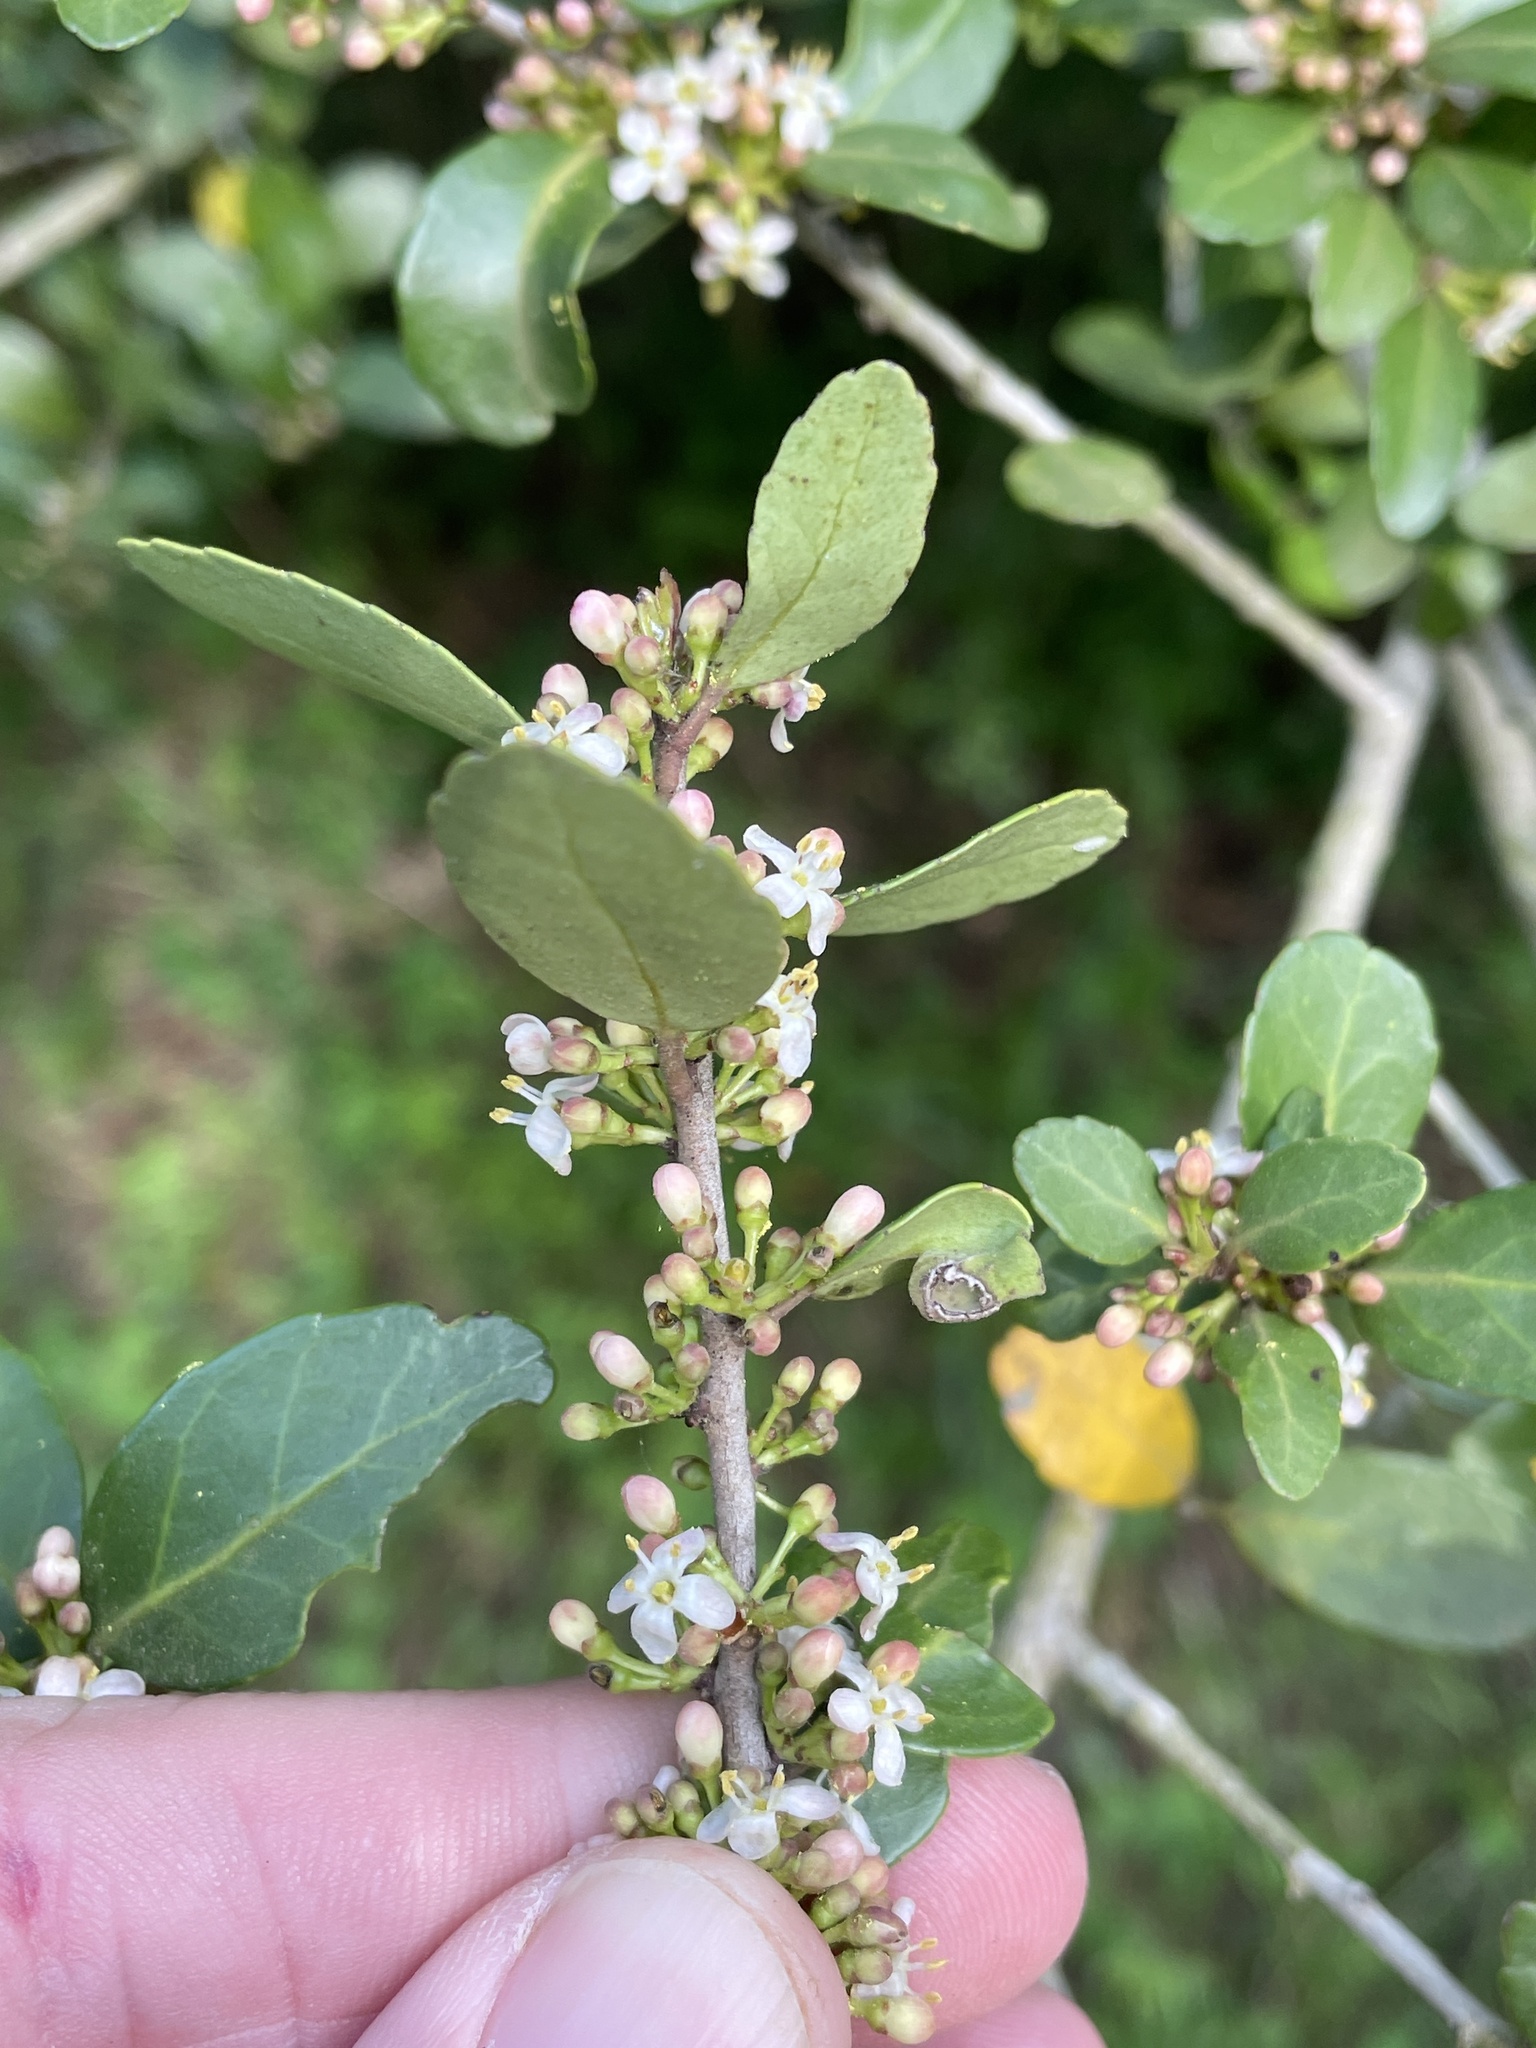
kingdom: Plantae
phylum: Tracheophyta
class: Magnoliopsida
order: Aquifoliales
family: Aquifoliaceae
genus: Ilex
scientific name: Ilex vomitoria
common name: Yaupon holly
